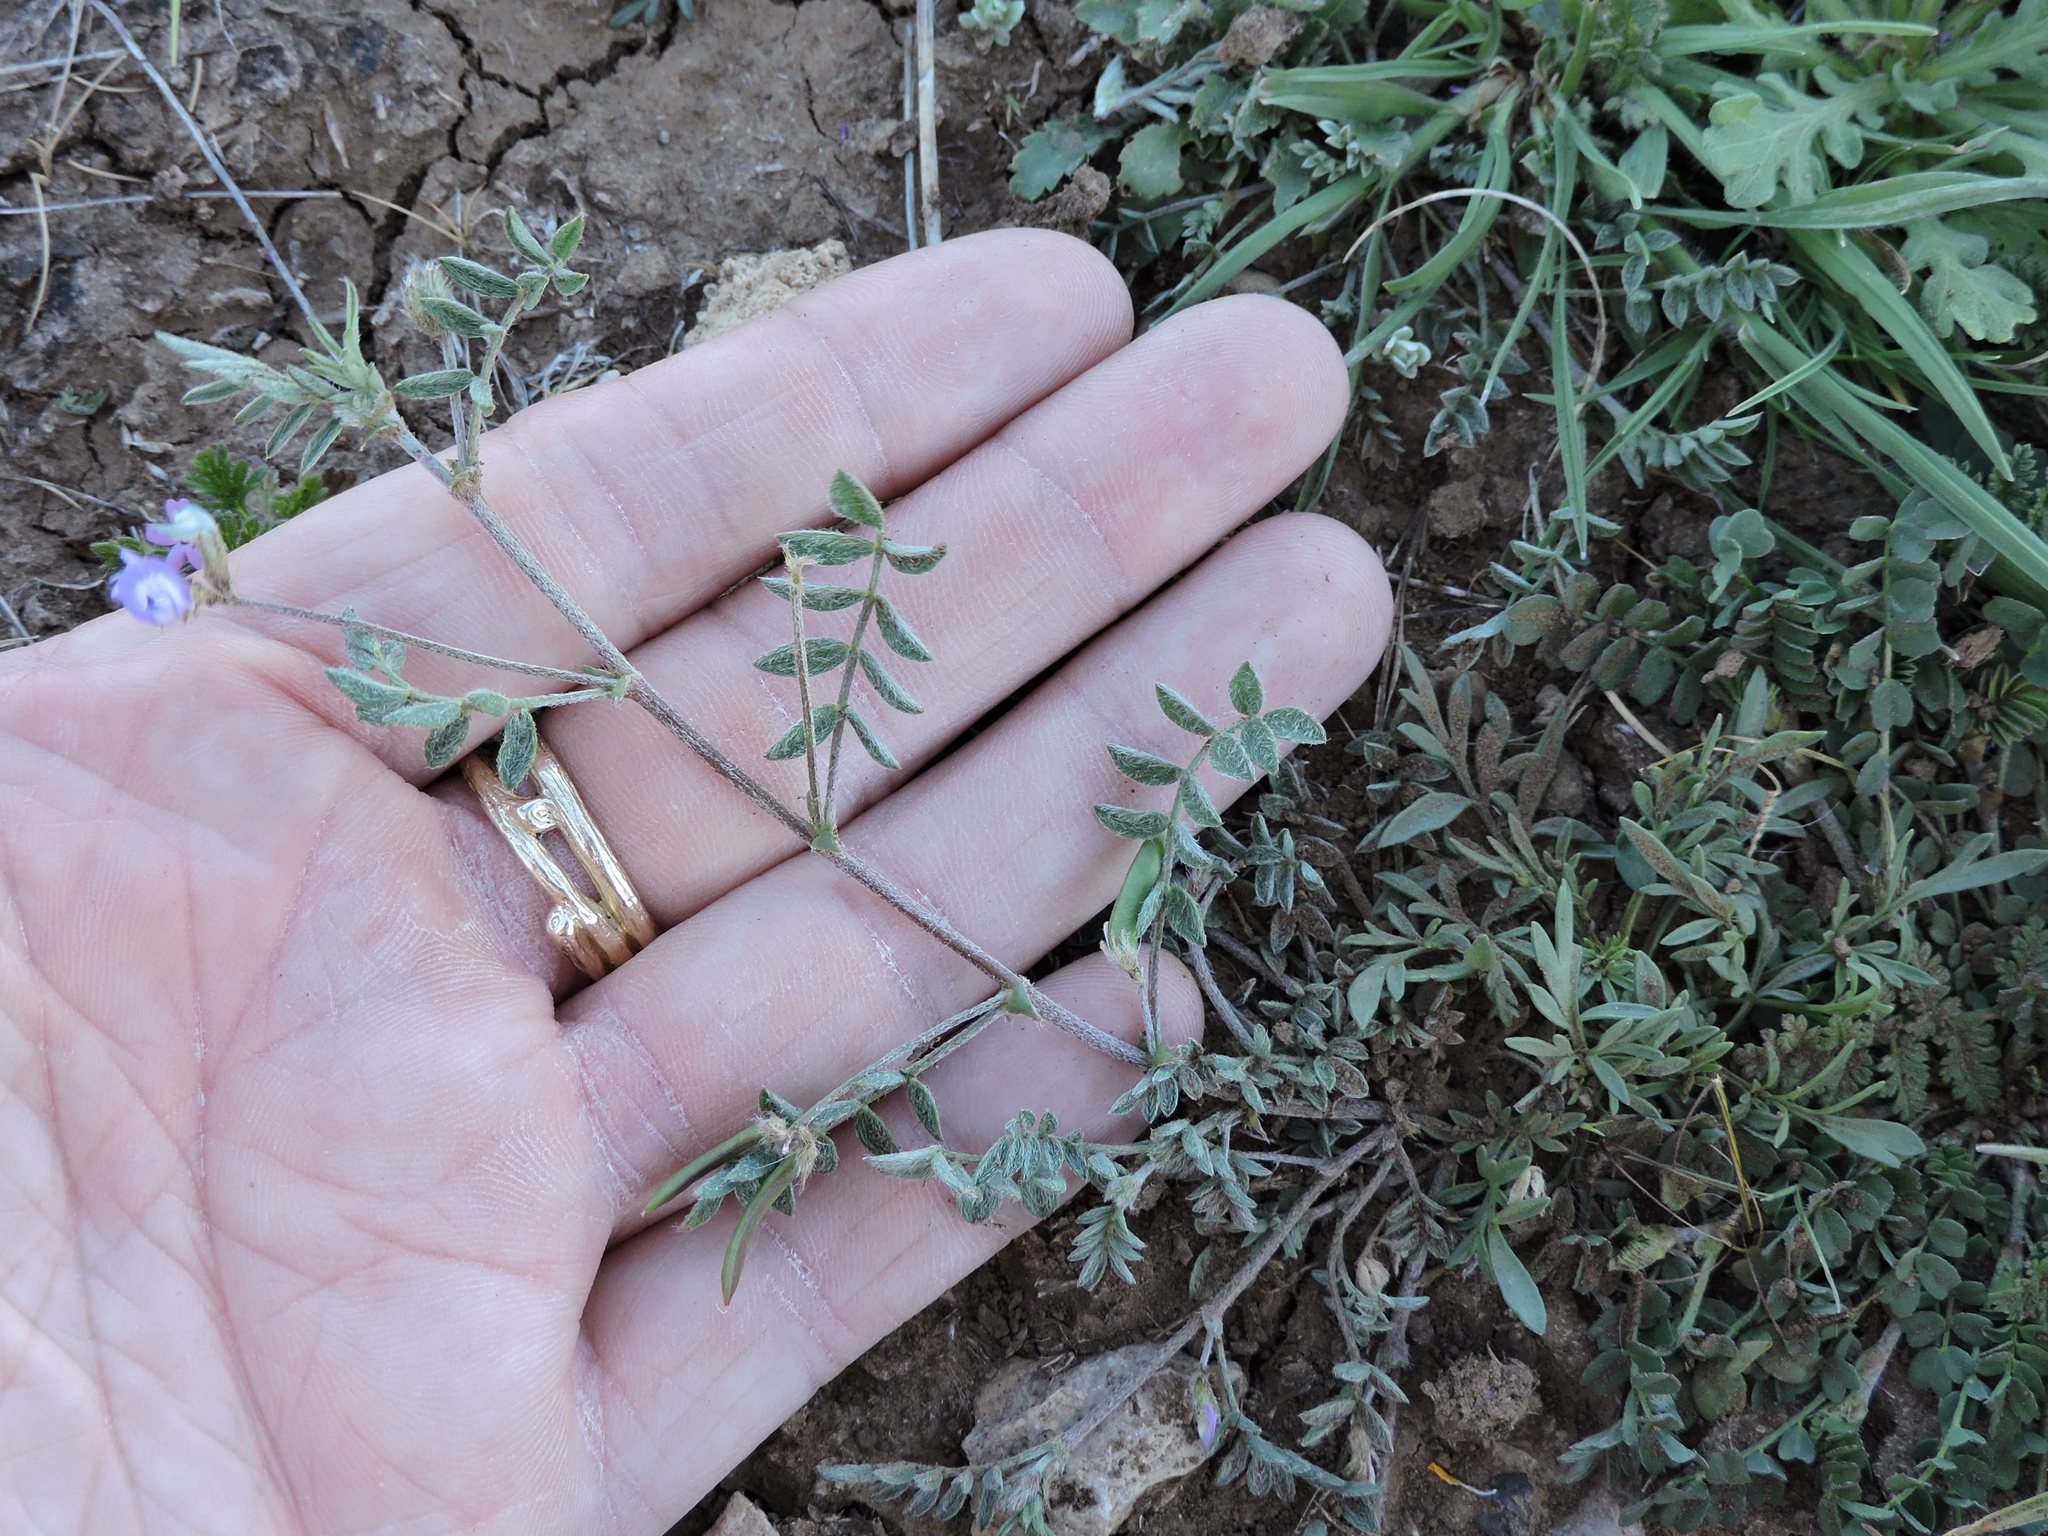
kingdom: Plantae
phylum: Tracheophyta
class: Magnoliopsida
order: Fabales
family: Fabaceae
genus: Astragalus
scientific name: Astragalus nuttallianus
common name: Smallflowered milkvetch
